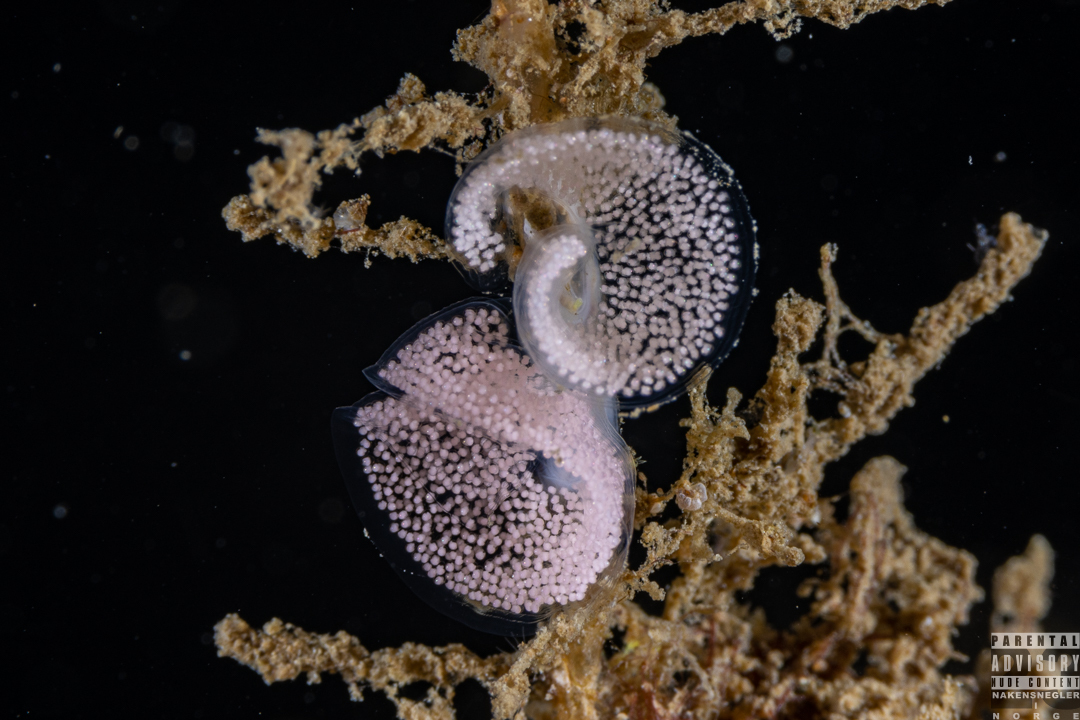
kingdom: Animalia
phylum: Mollusca
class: Gastropoda
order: Nudibranchia
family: Eubranchidae
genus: Eubranchus
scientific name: Eubranchus tricolor
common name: Painted balloon aeolis
